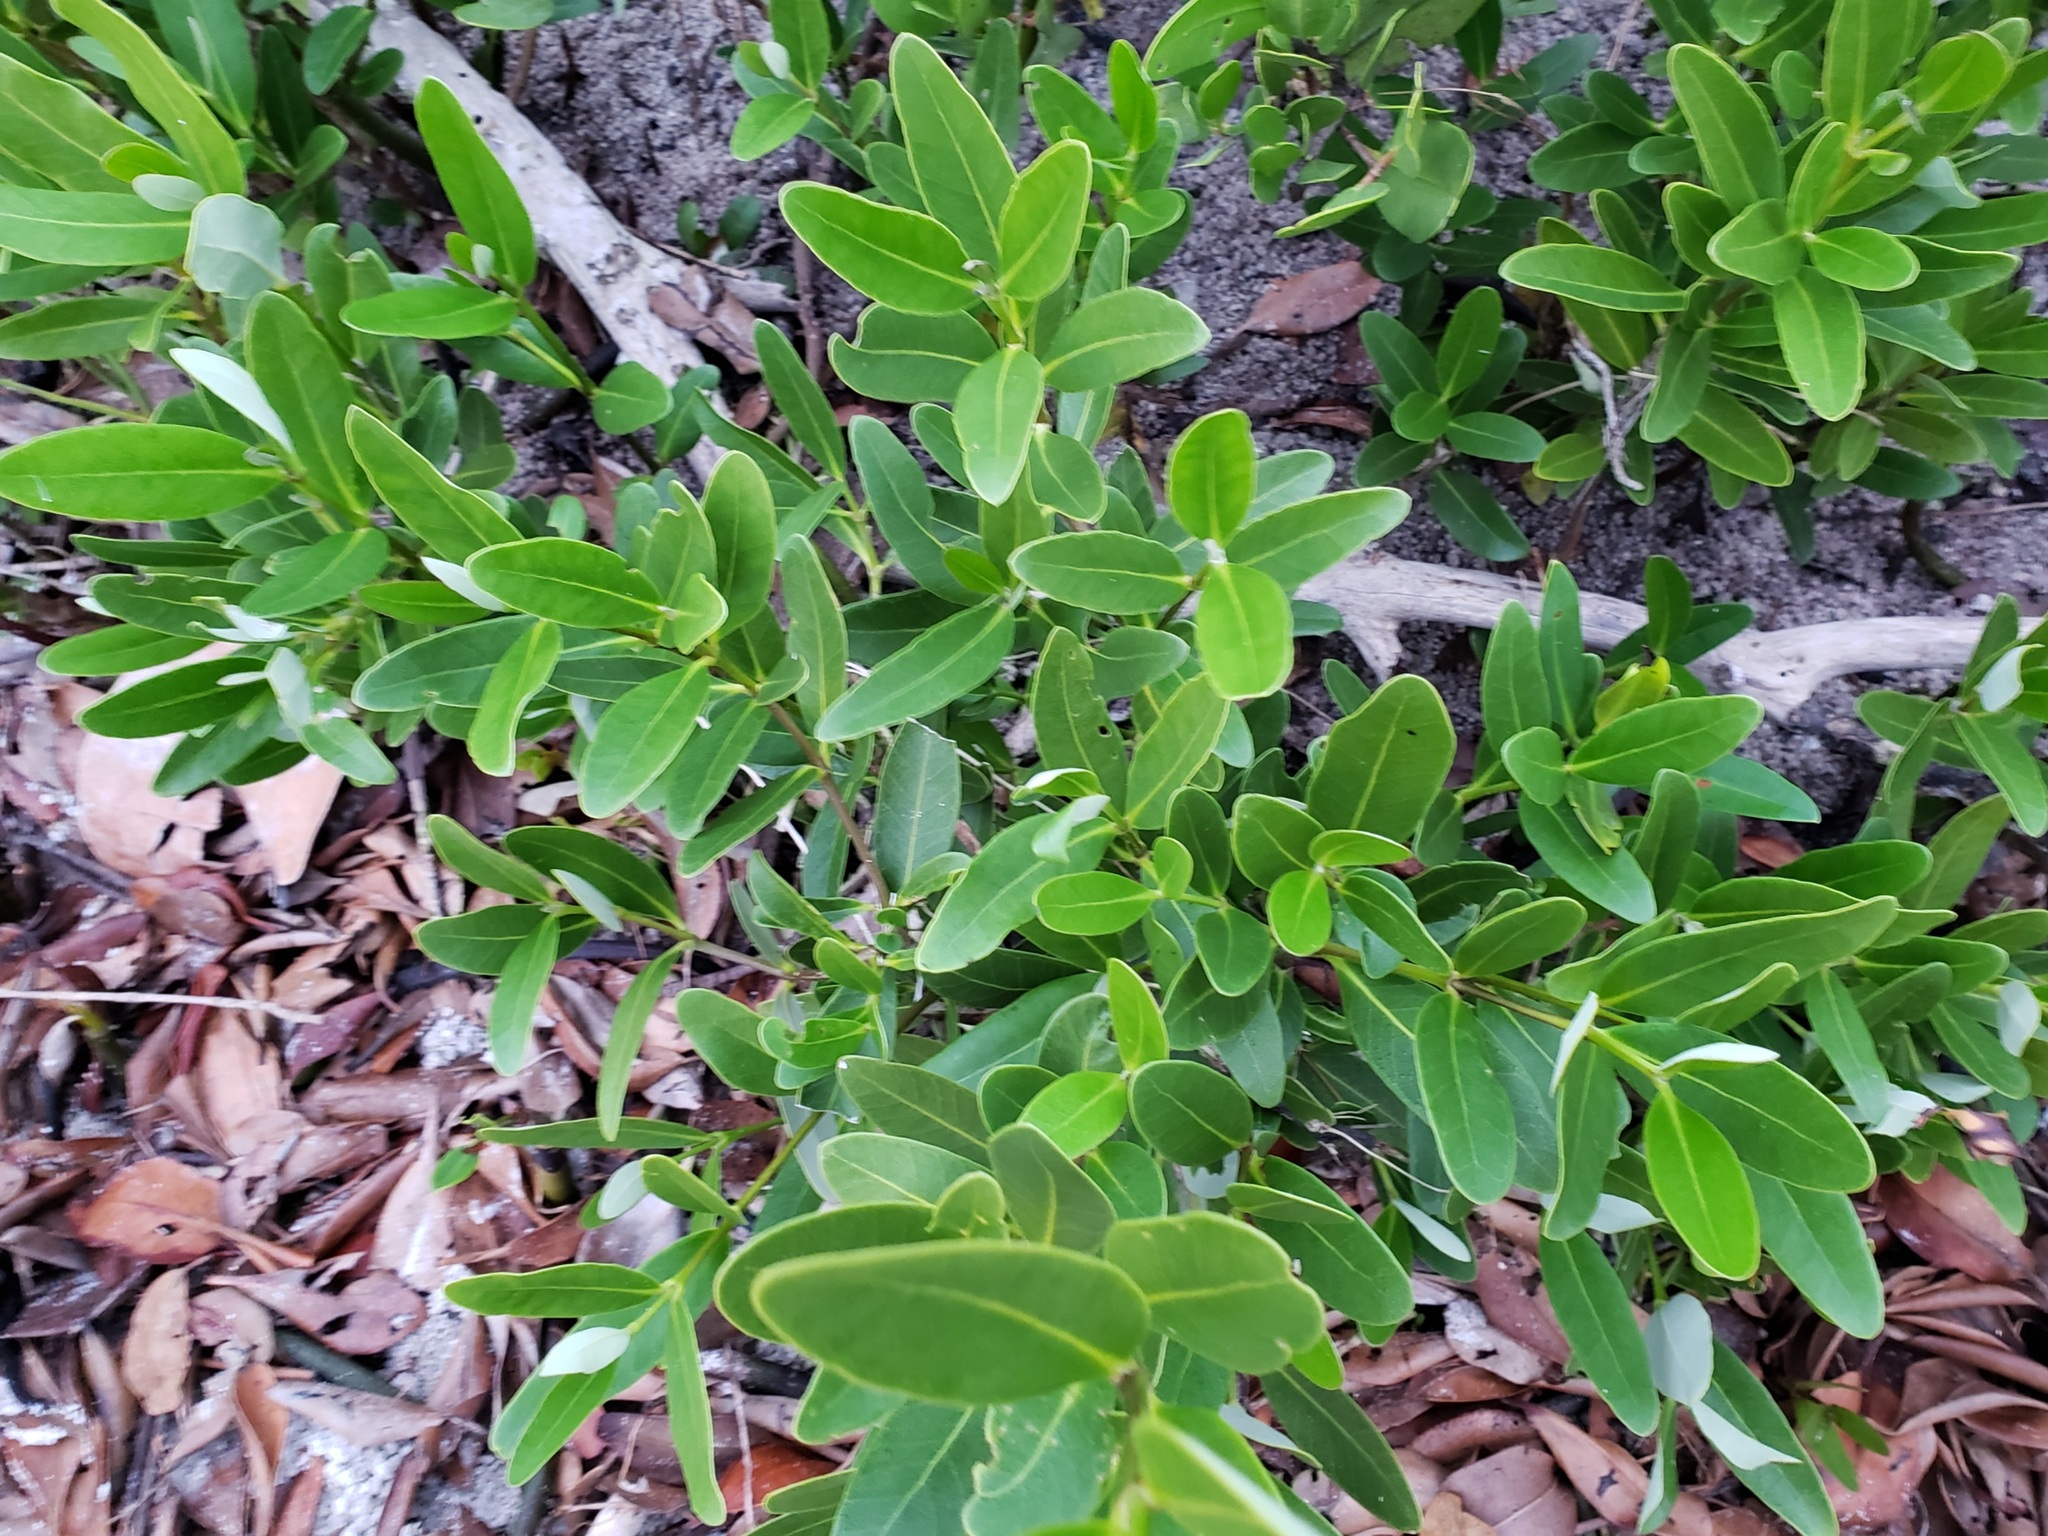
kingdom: Plantae
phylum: Tracheophyta
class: Magnoliopsida
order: Lamiales
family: Acanthaceae
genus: Avicennia
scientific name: Avicennia germinans
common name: Black mangrove
